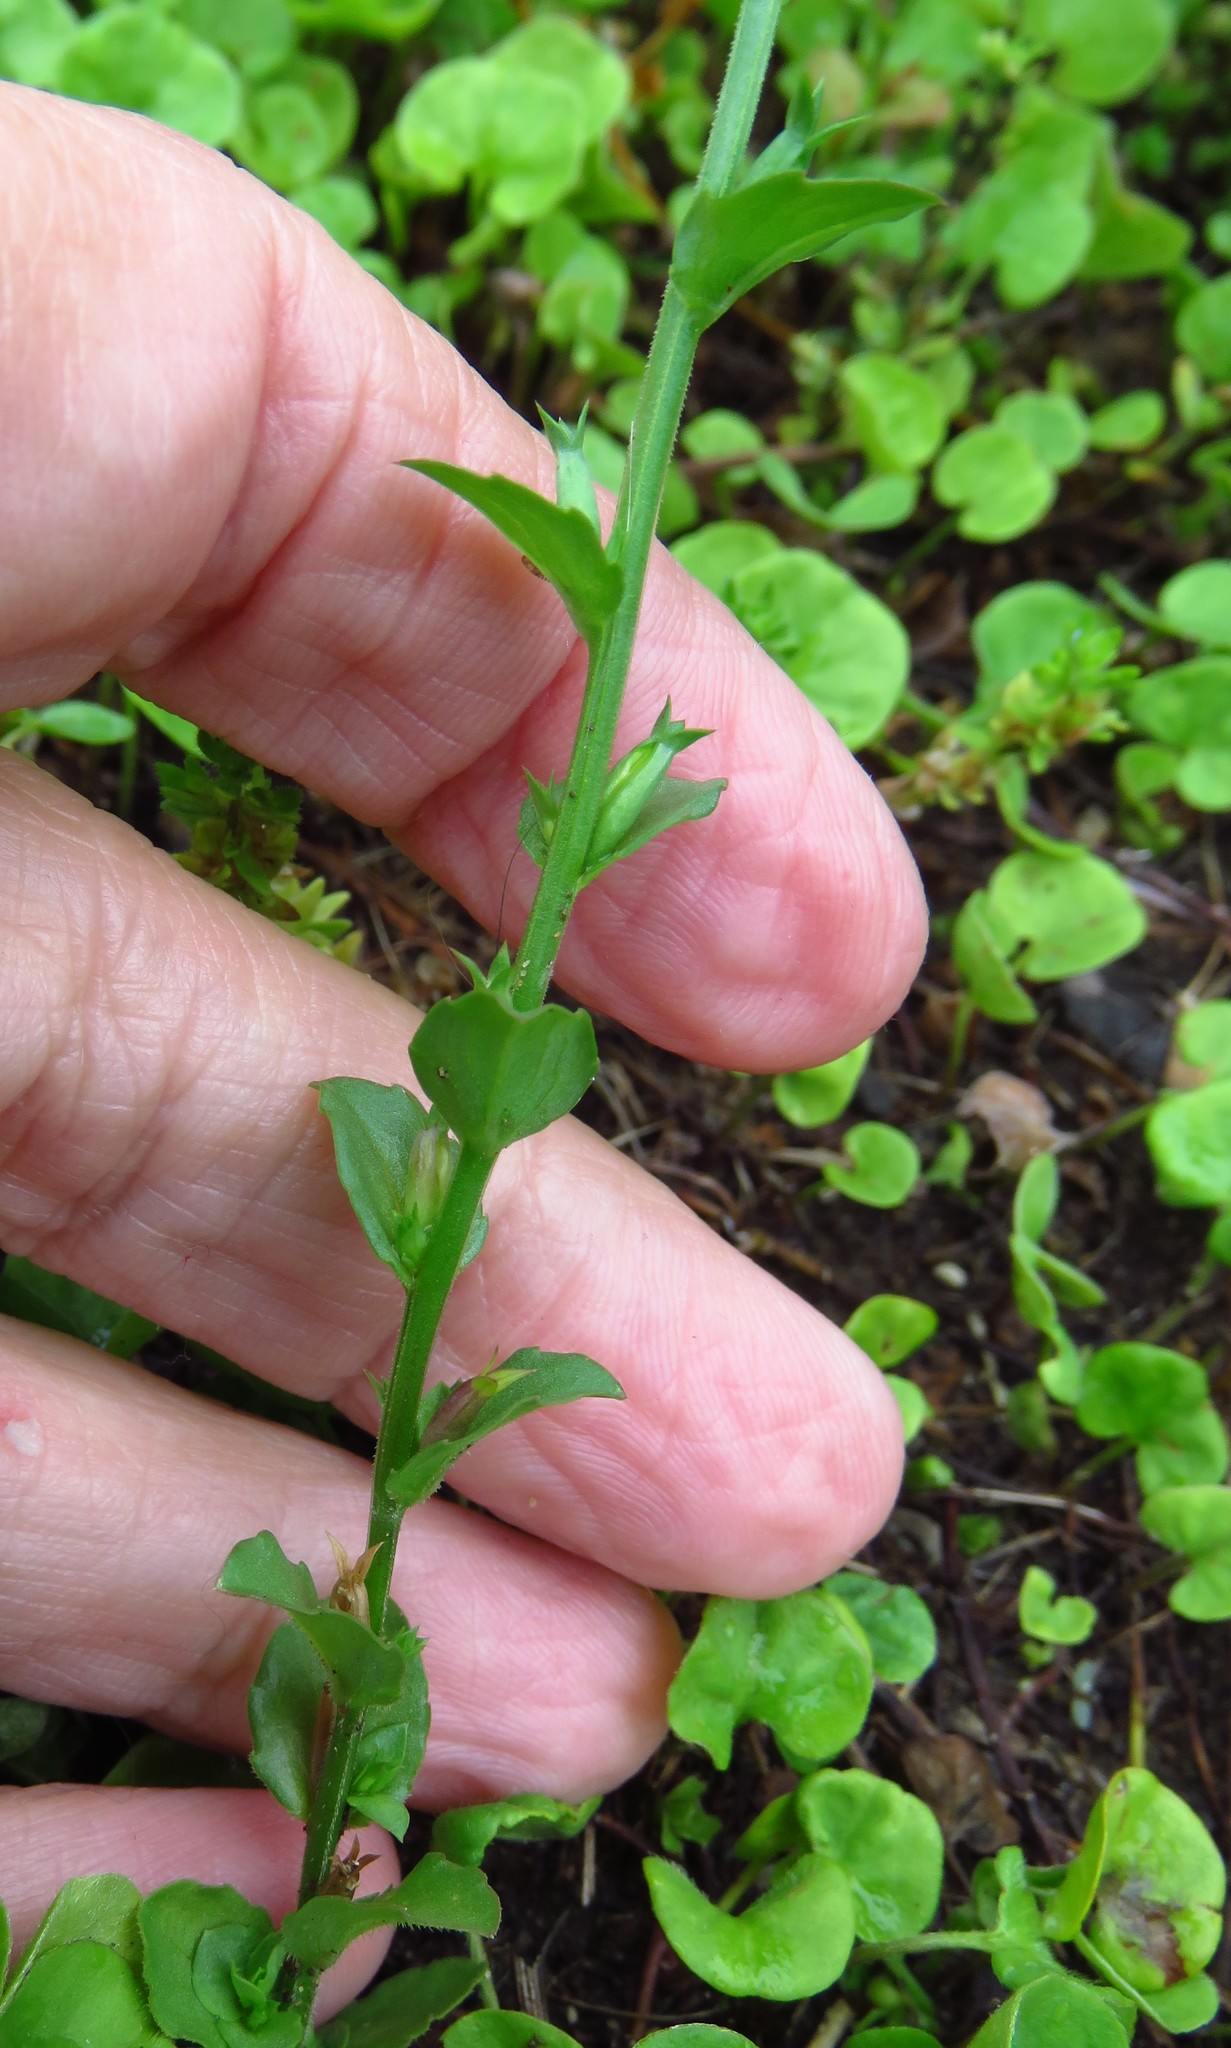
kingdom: Plantae
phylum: Tracheophyta
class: Magnoliopsida
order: Asterales
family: Campanulaceae
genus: Triodanis
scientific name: Triodanis biflora
